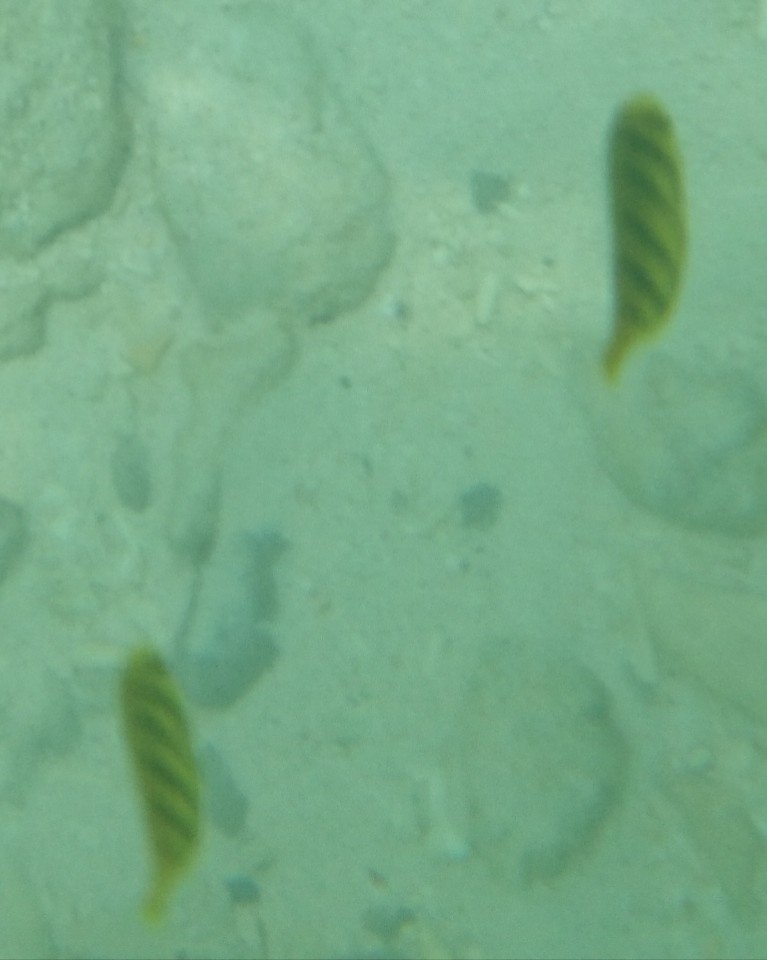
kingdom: Animalia
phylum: Chordata
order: Perciformes
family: Carangidae
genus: Gnathanodon
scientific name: Gnathanodon speciosus
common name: Golden toothless trevally
